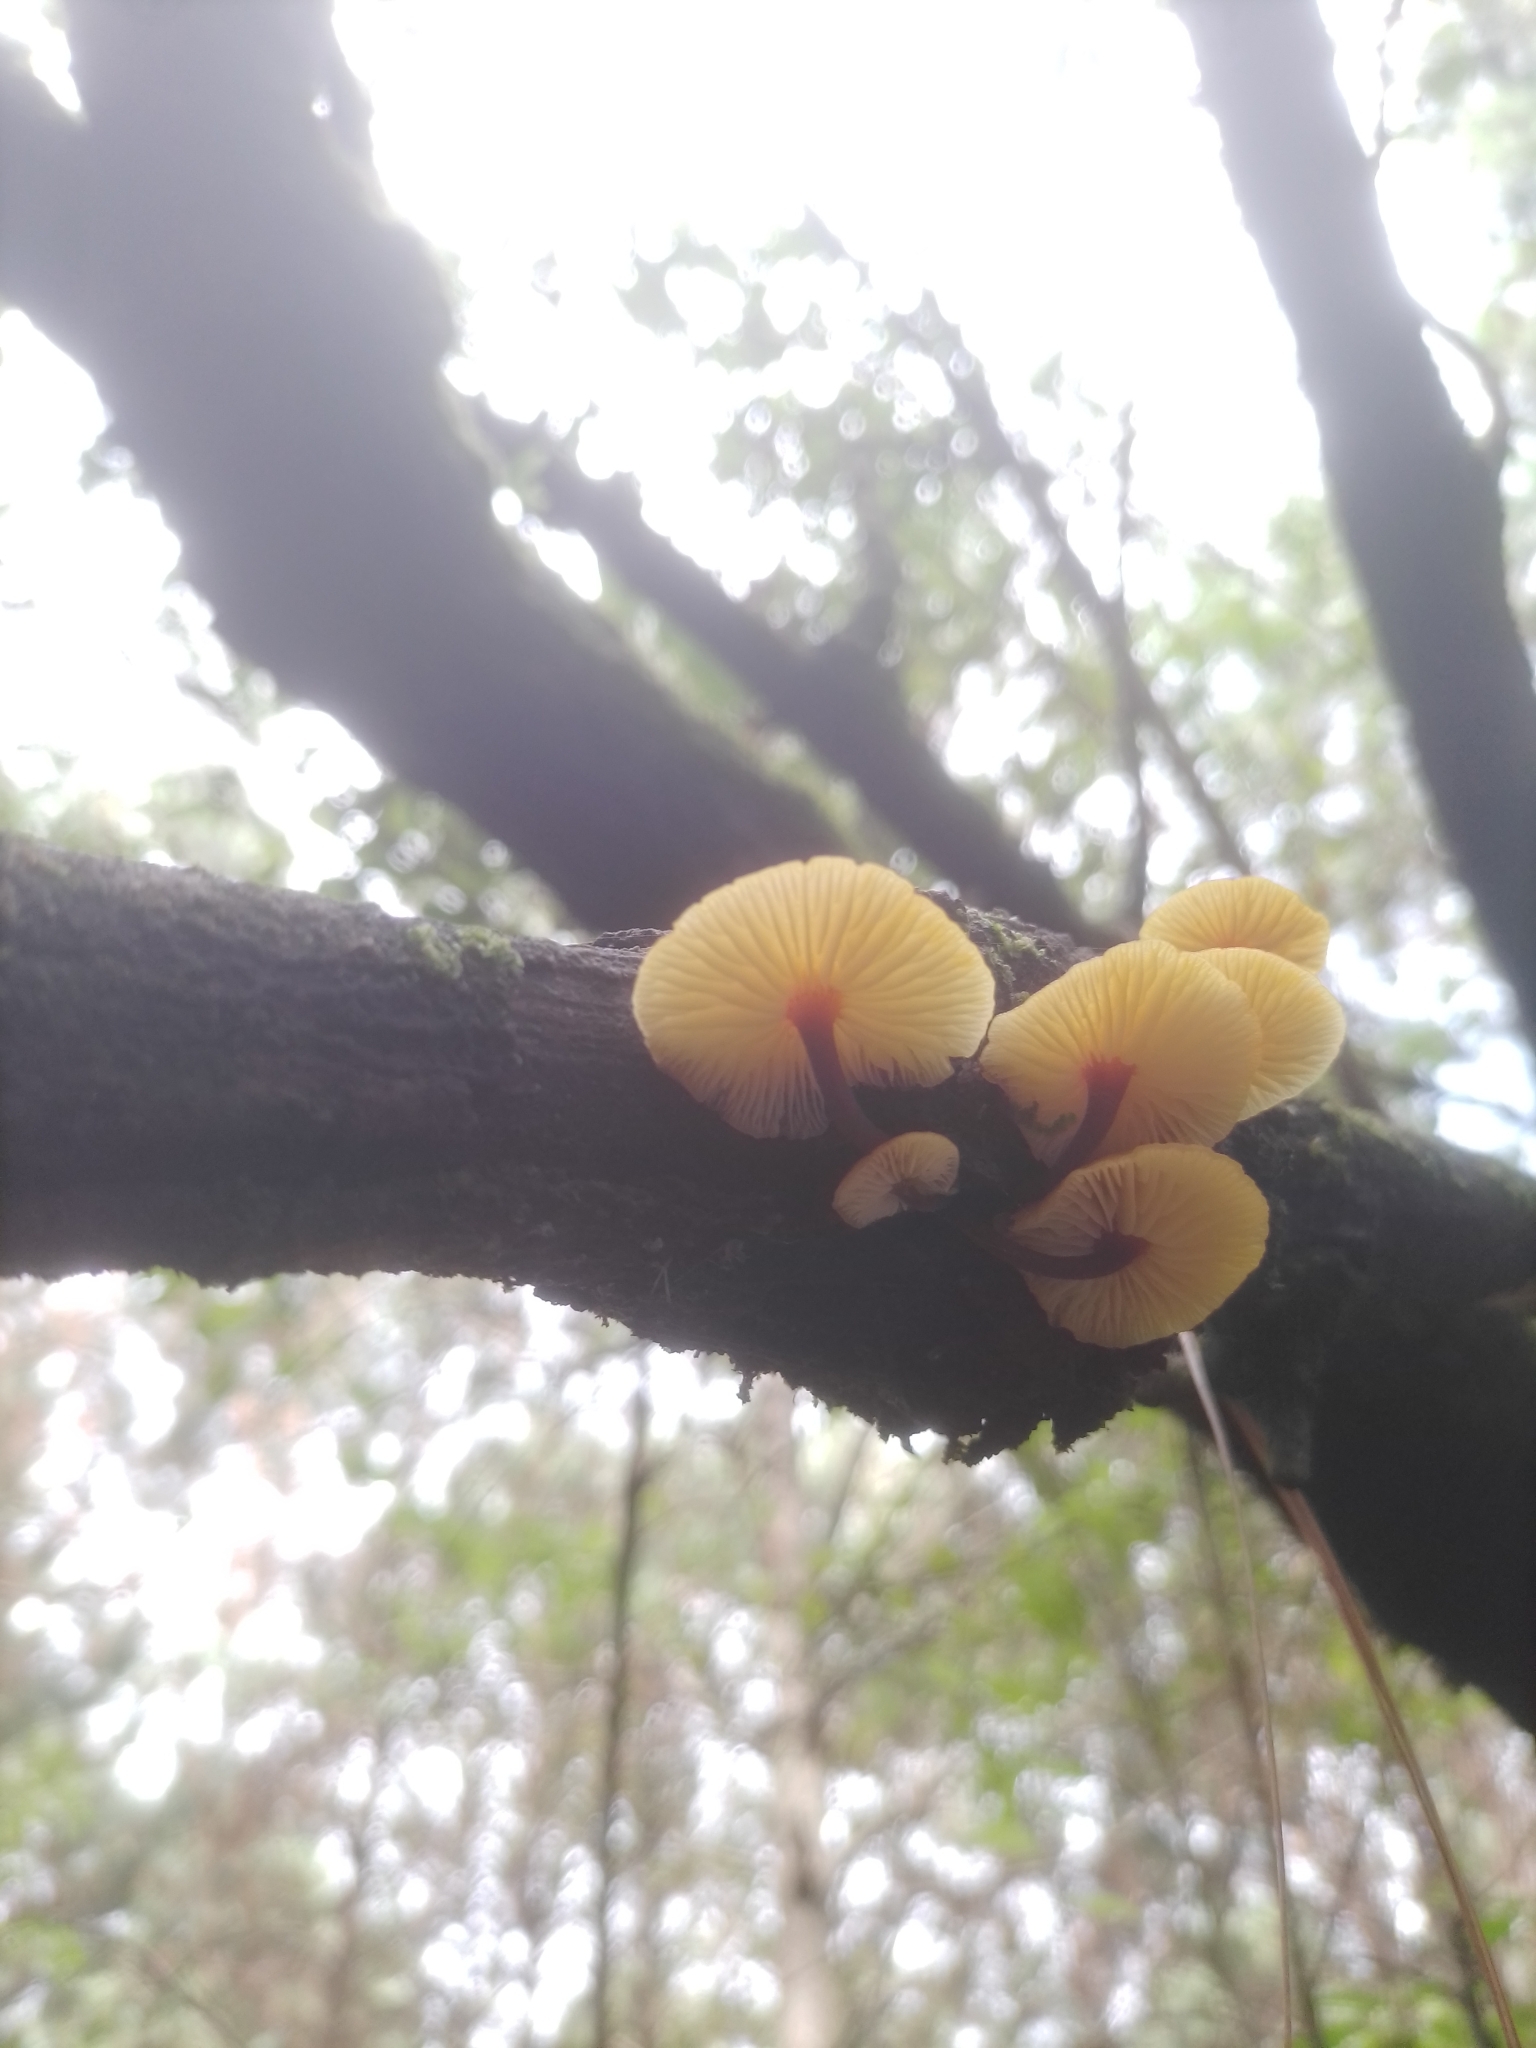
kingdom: Fungi
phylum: Basidiomycota
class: Agaricomycetes
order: Agaricales
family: Physalacriaceae
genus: Flammulina
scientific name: Flammulina velutipes
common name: Velvet shank
